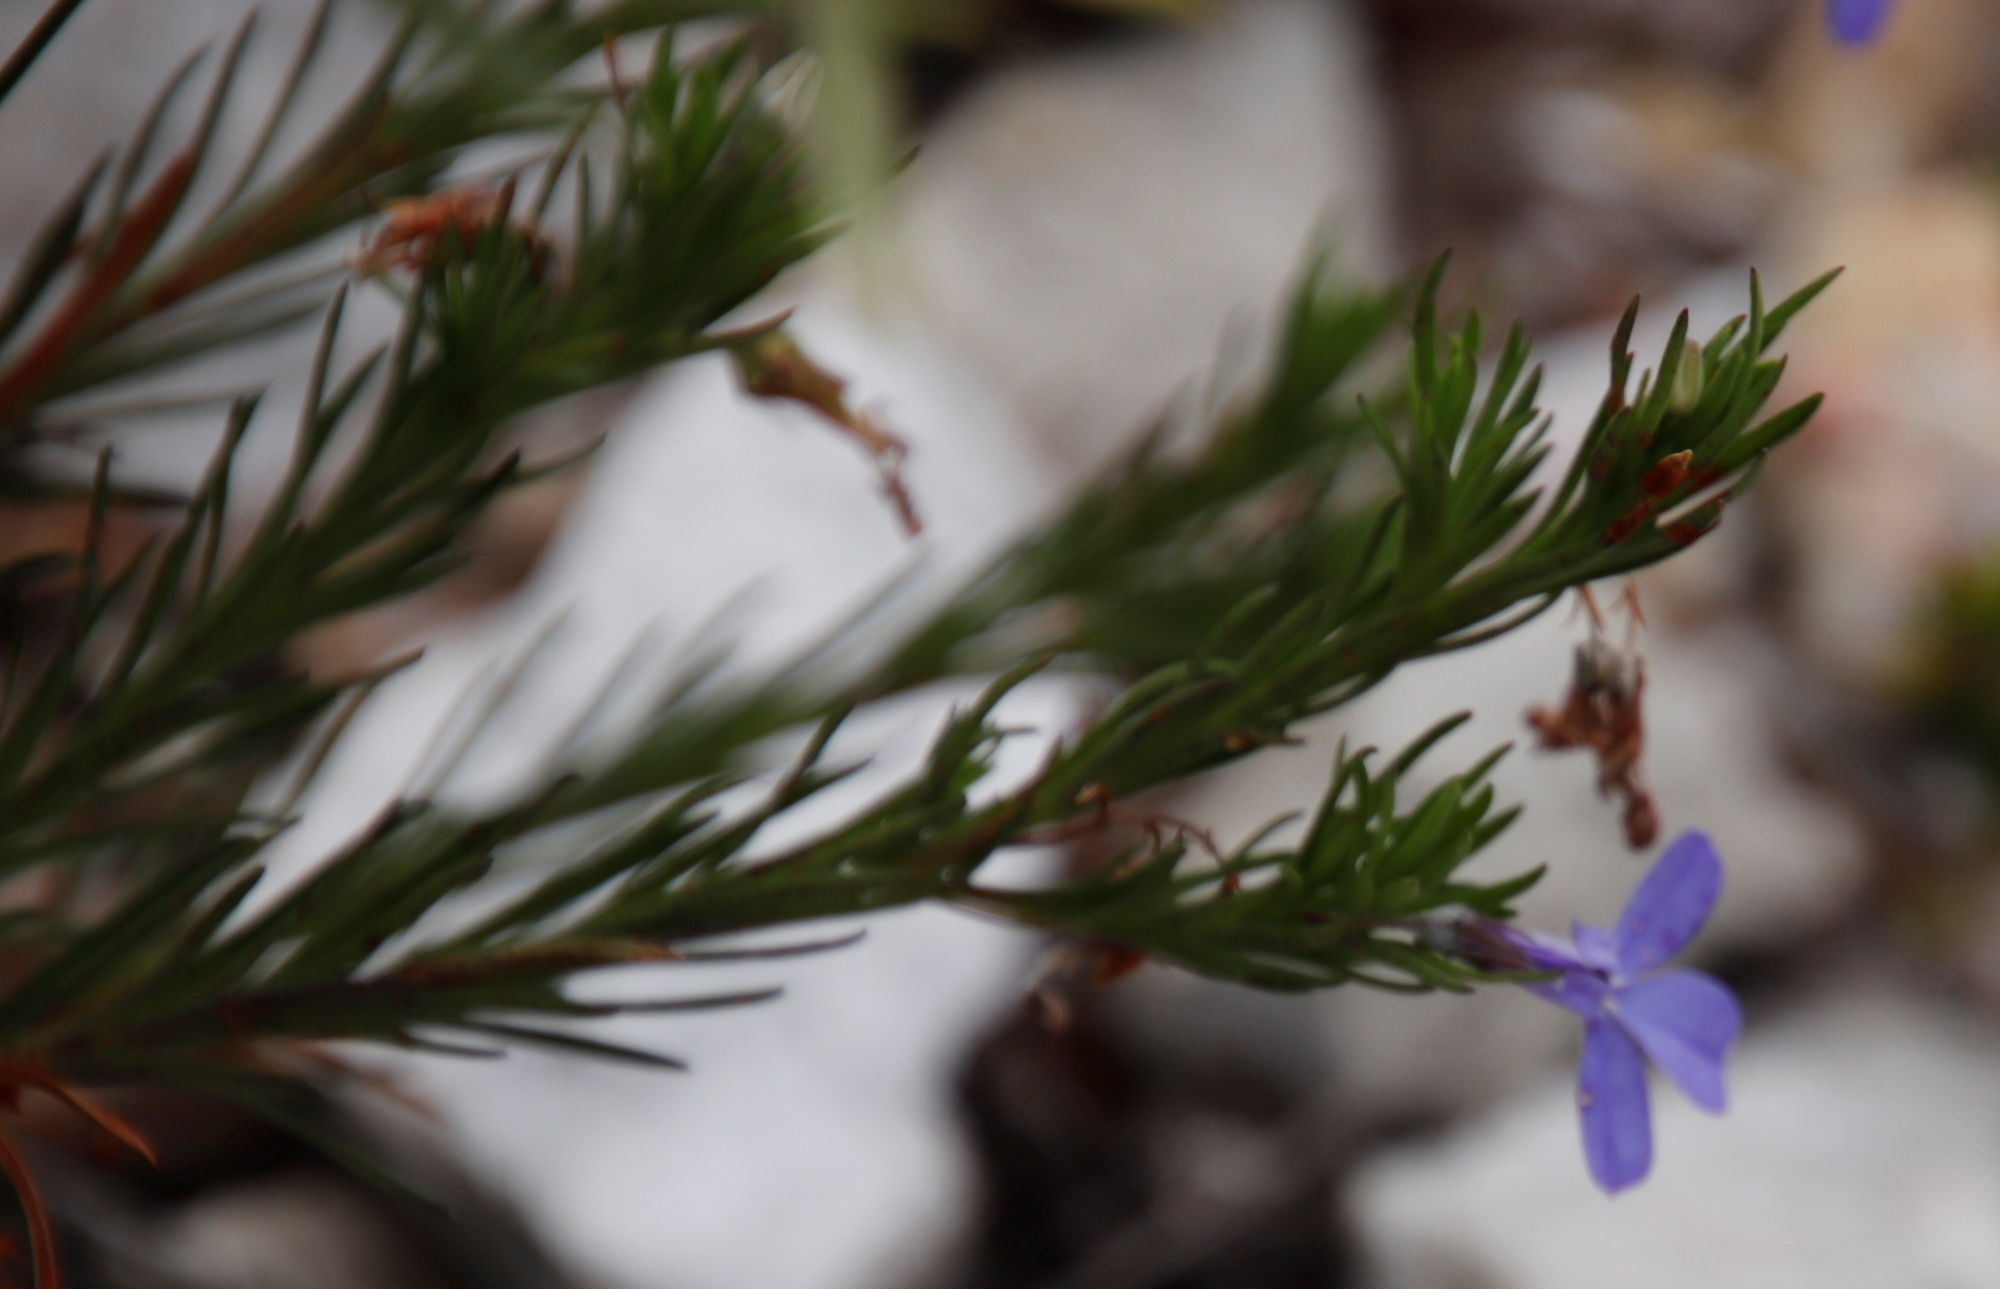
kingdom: Plantae
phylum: Tracheophyta
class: Magnoliopsida
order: Asterales
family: Campanulaceae
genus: Lobelia
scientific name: Lobelia pinifolia
